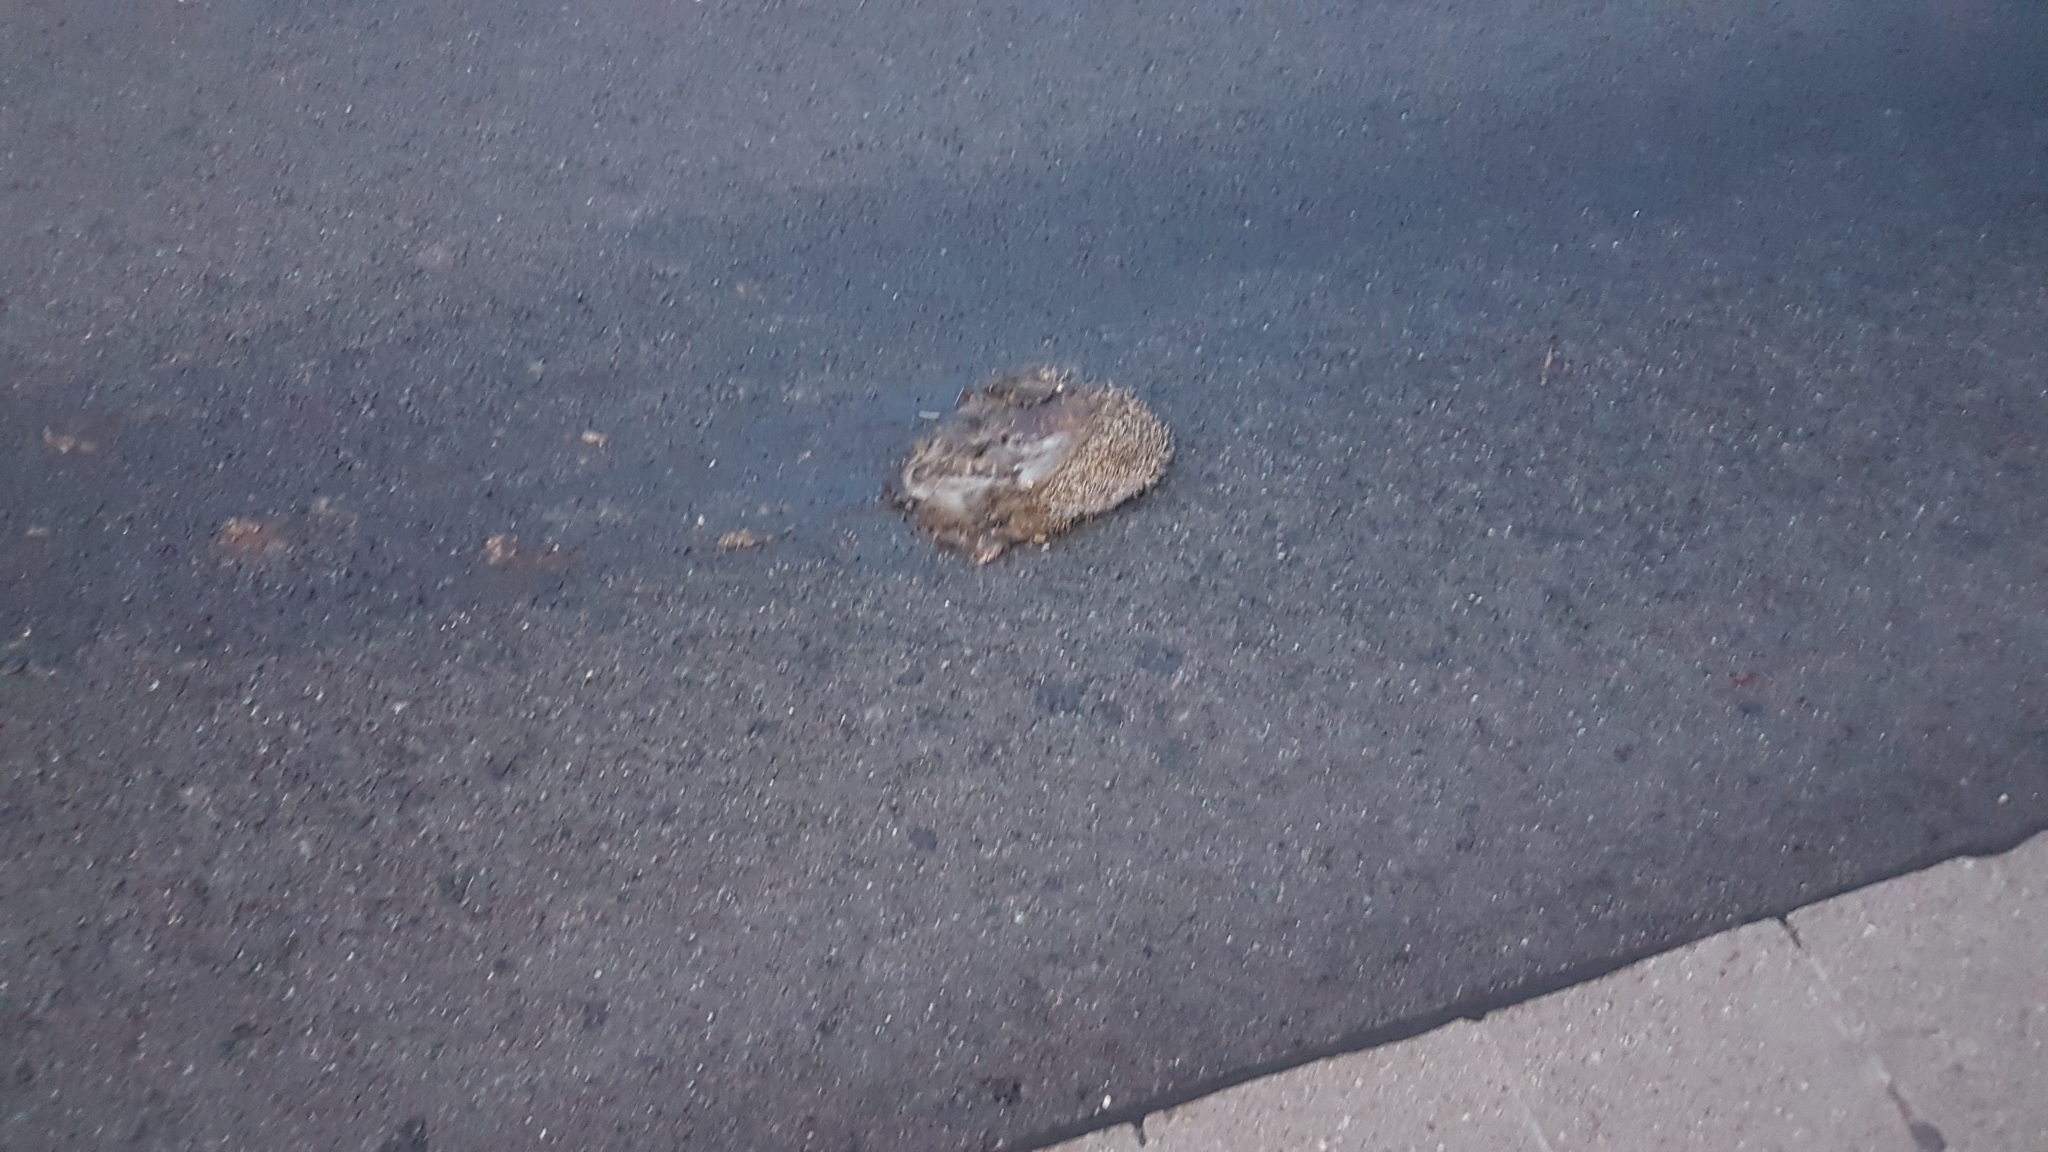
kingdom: Animalia
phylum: Chordata
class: Mammalia
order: Erinaceomorpha
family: Erinaceidae
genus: Erinaceus
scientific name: Erinaceus europaeus
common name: West european hedgehog
